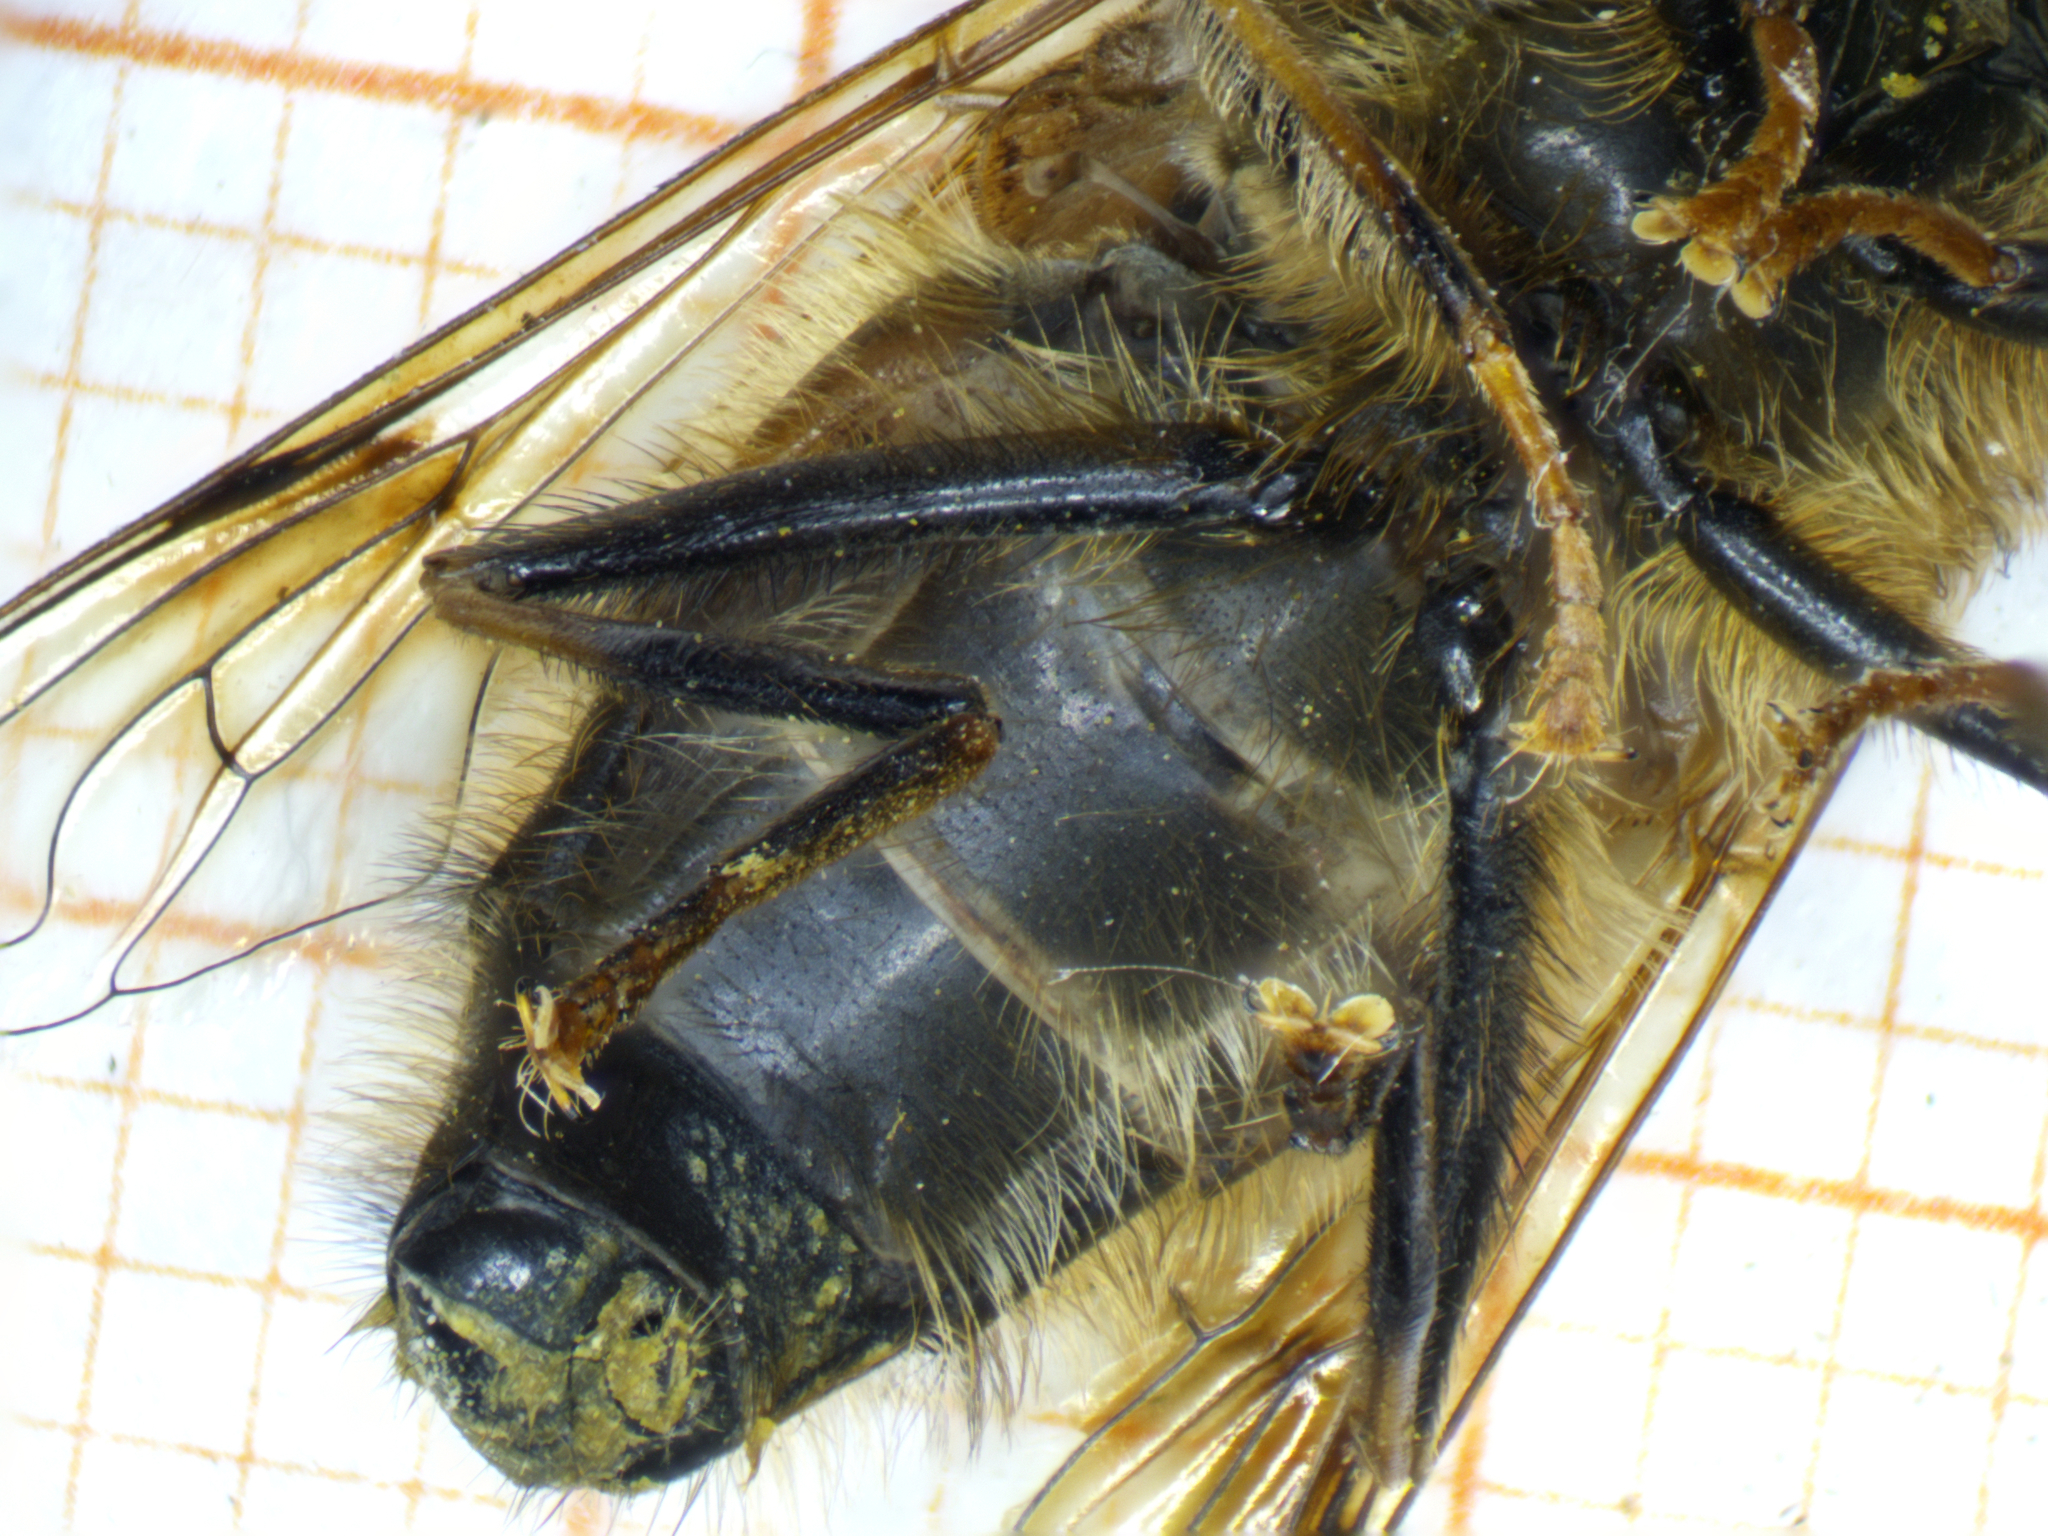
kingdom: Animalia
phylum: Arthropoda
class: Insecta
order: Diptera
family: Syrphidae
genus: Eristalis
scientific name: Eristalis pertinax
